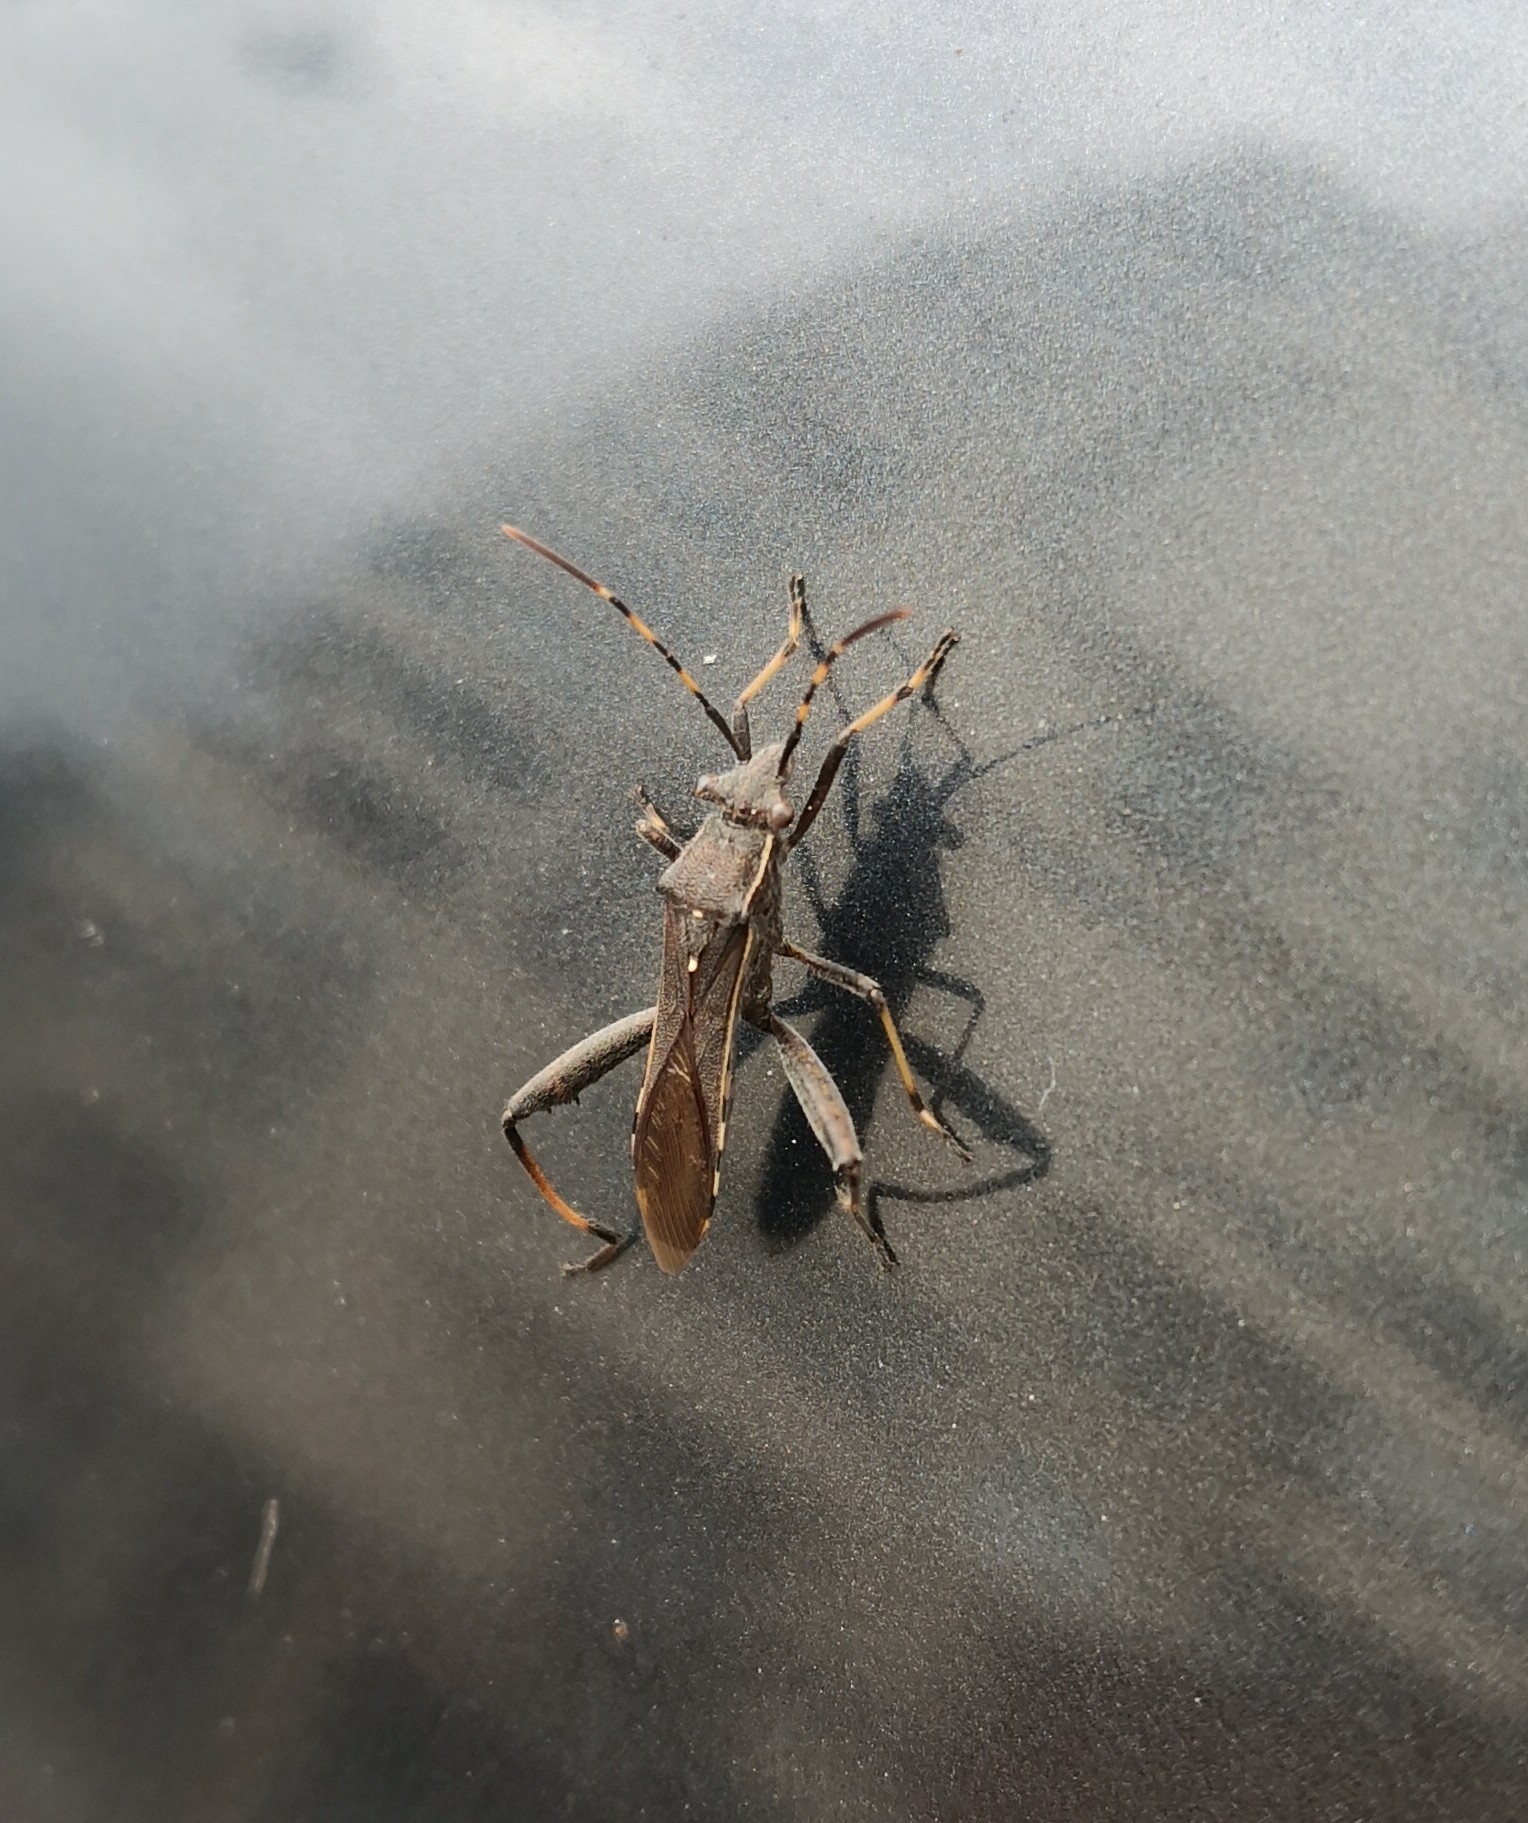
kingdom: Animalia
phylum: Arthropoda
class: Insecta
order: Hemiptera
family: Alydidae
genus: Camptopus
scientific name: Camptopus lateralis
